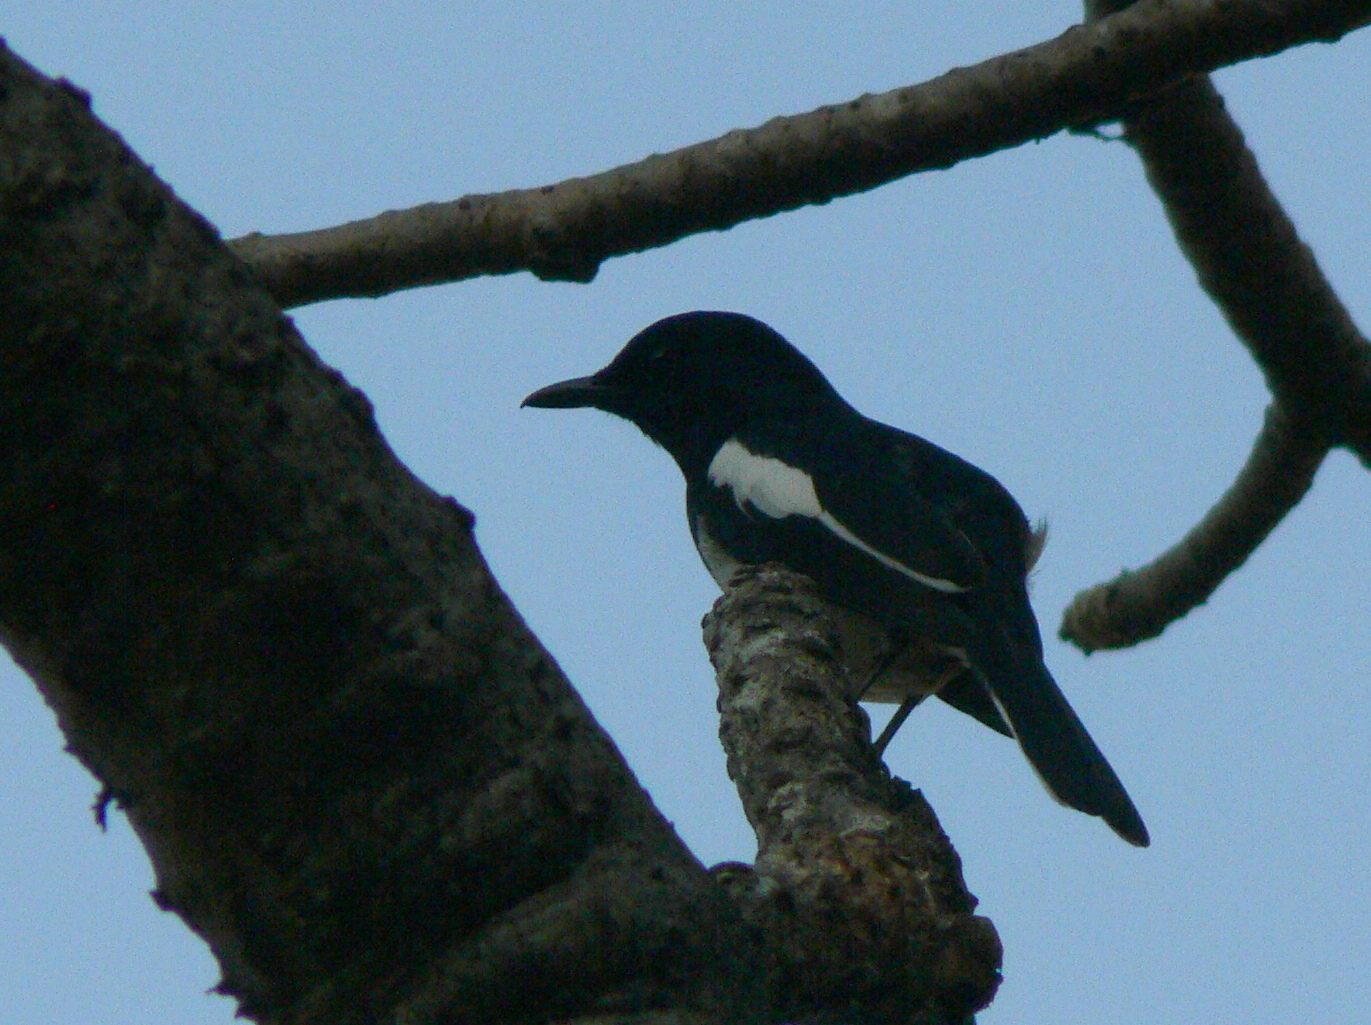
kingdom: Animalia
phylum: Chordata
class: Aves
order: Passeriformes
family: Muscicapidae
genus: Copsychus
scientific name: Copsychus saularis
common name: Oriental magpie-robin
